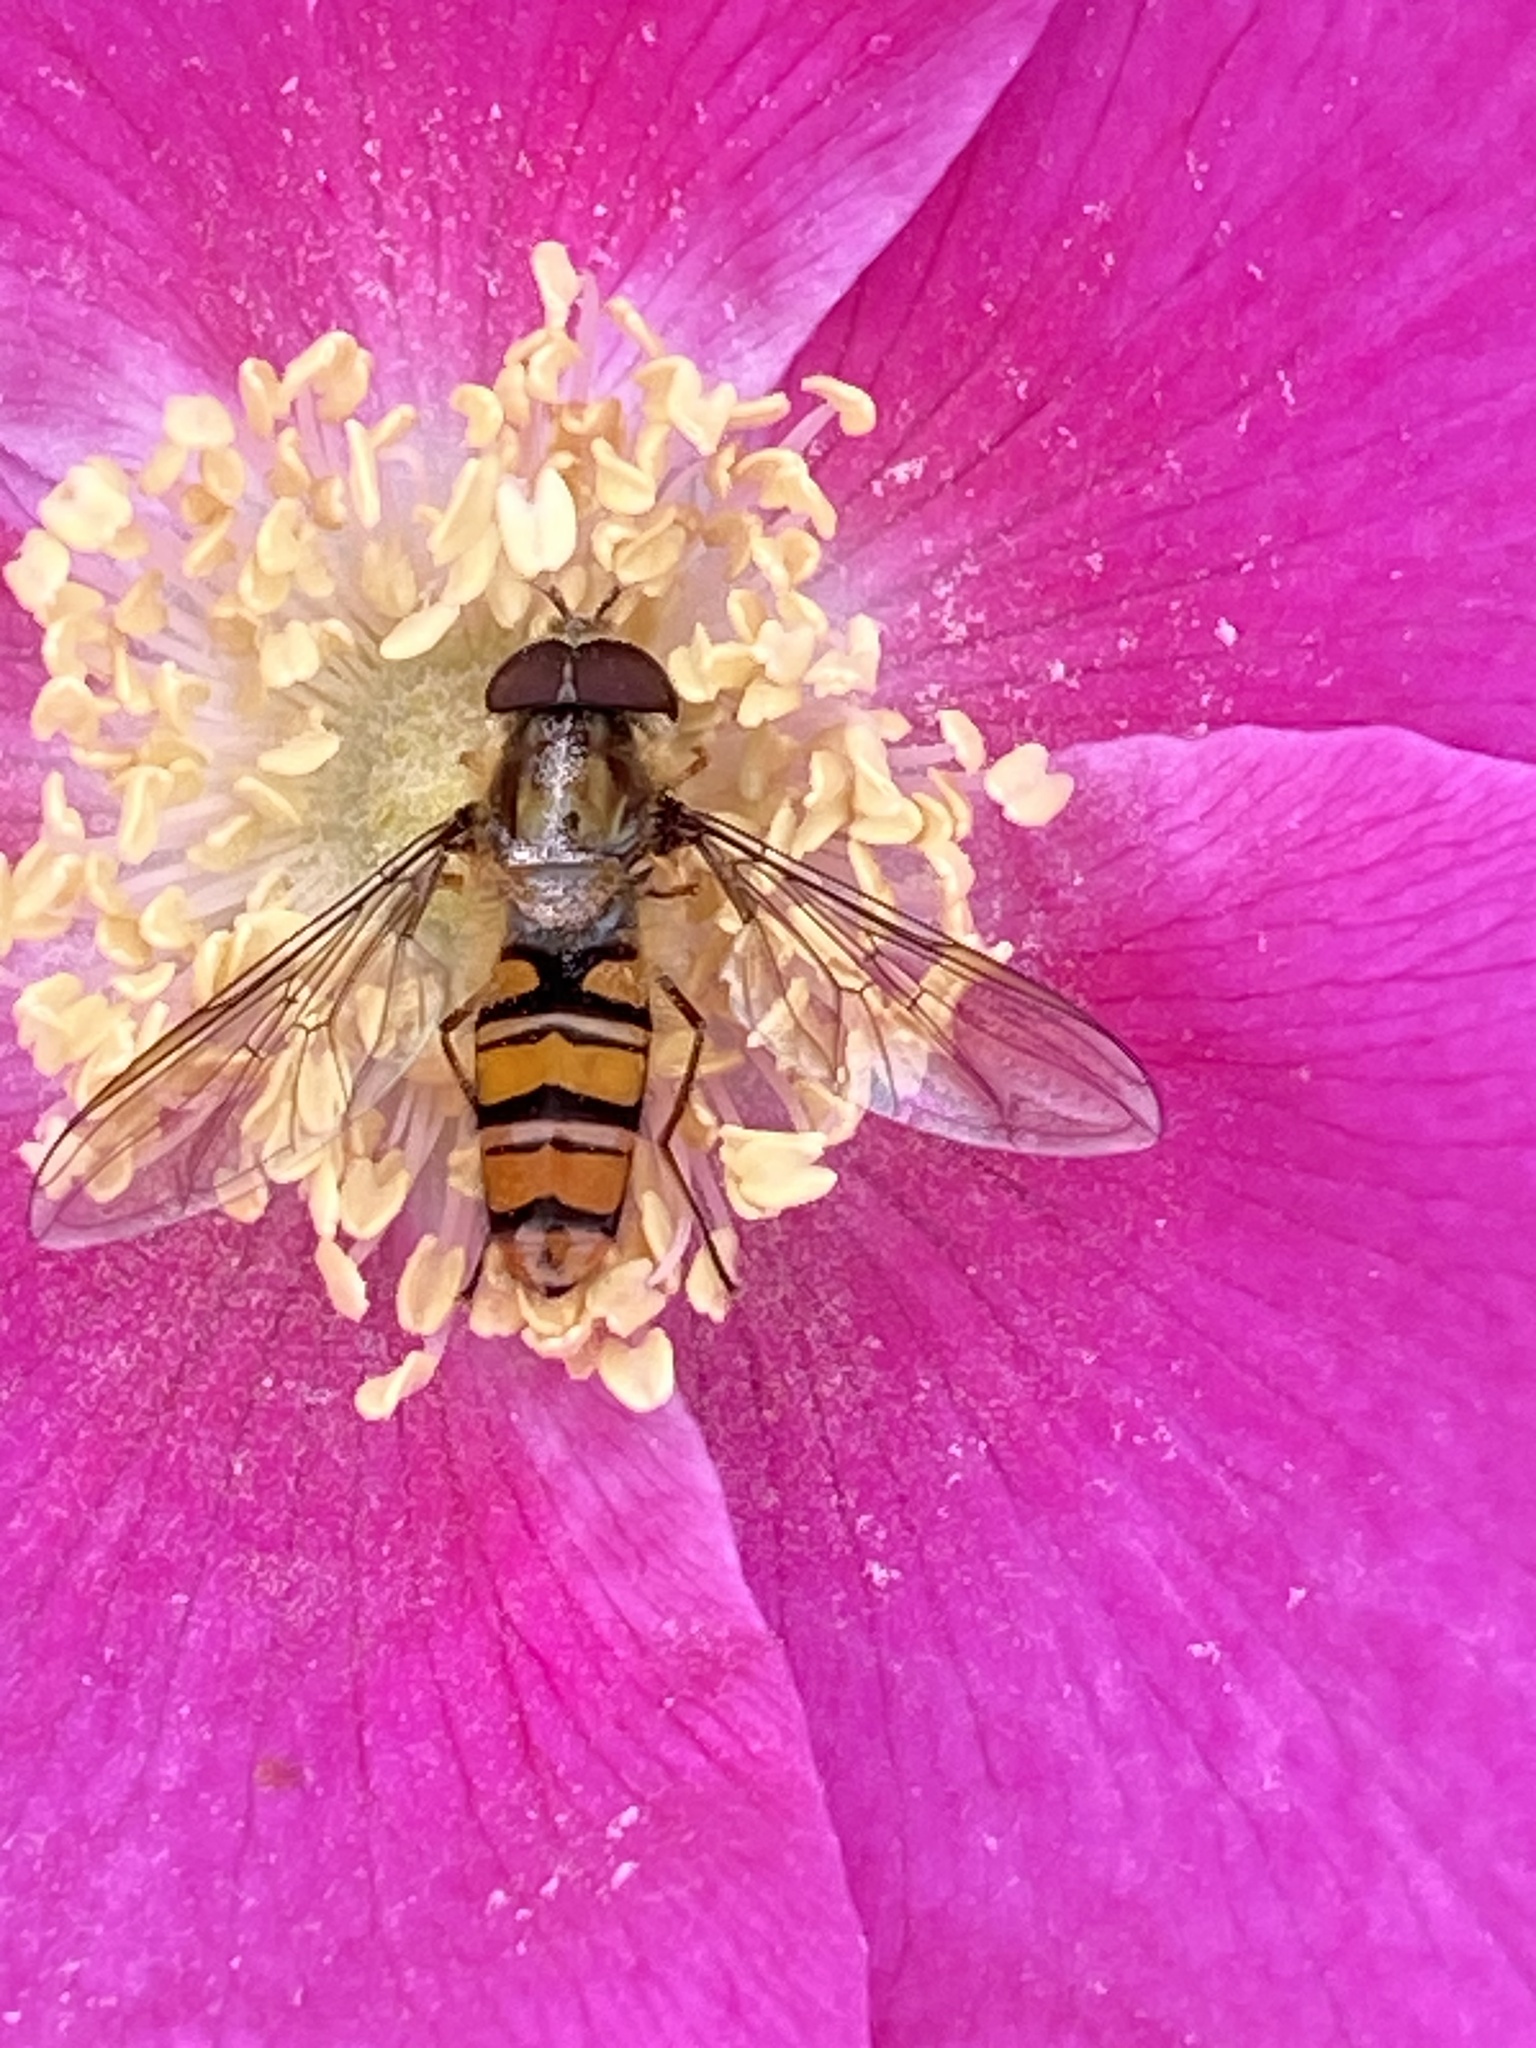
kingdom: Animalia
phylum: Arthropoda
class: Insecta
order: Diptera
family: Syrphidae
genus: Episyrphus
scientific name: Episyrphus balteatus
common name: Marmalade hoverfly
